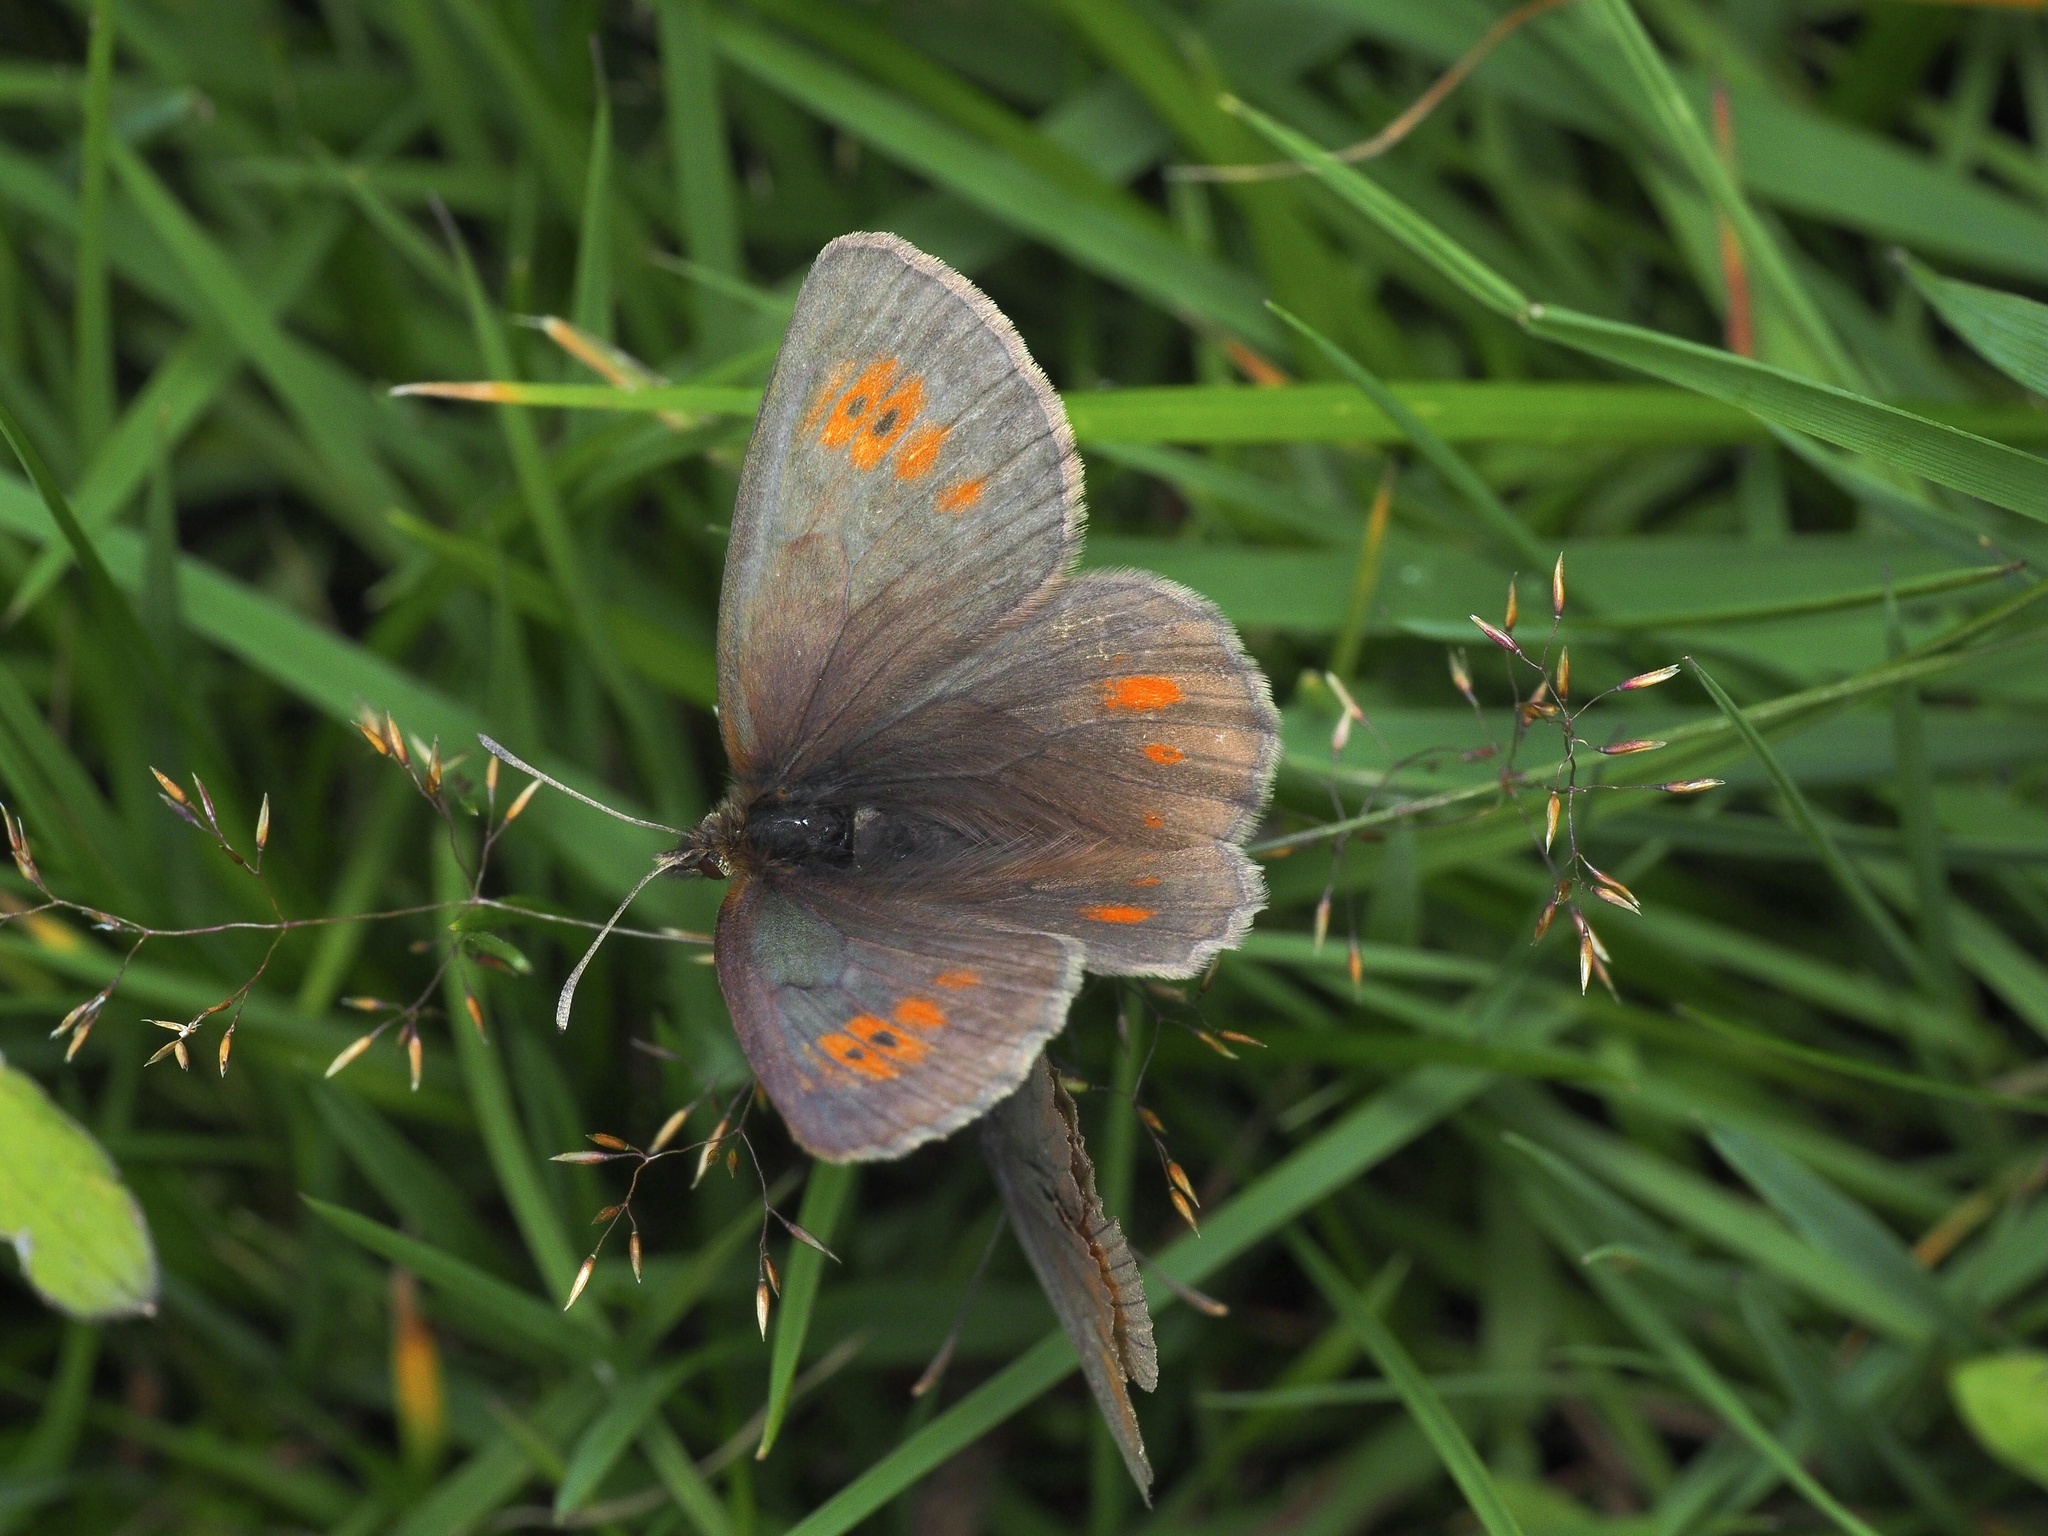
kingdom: Animalia
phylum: Arthropoda
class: Insecta
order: Lepidoptera
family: Nymphalidae
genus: Erebia
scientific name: Erebia manto
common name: Yellow-spotted ringlet
